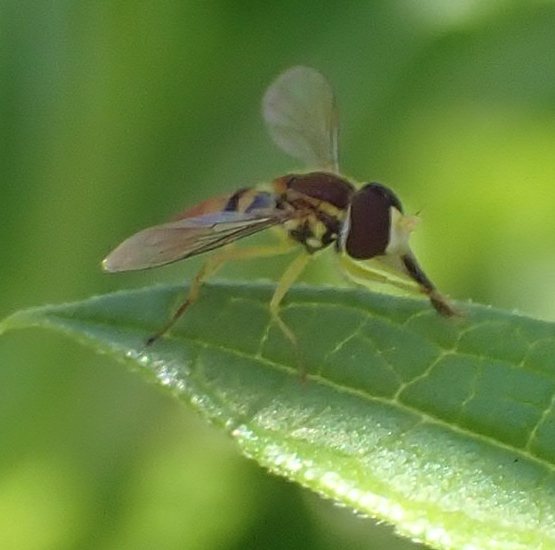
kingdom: Animalia
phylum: Arthropoda
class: Insecta
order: Diptera
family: Syrphidae
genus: Toxomerus
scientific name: Toxomerus marginatus
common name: Syrphid fly
